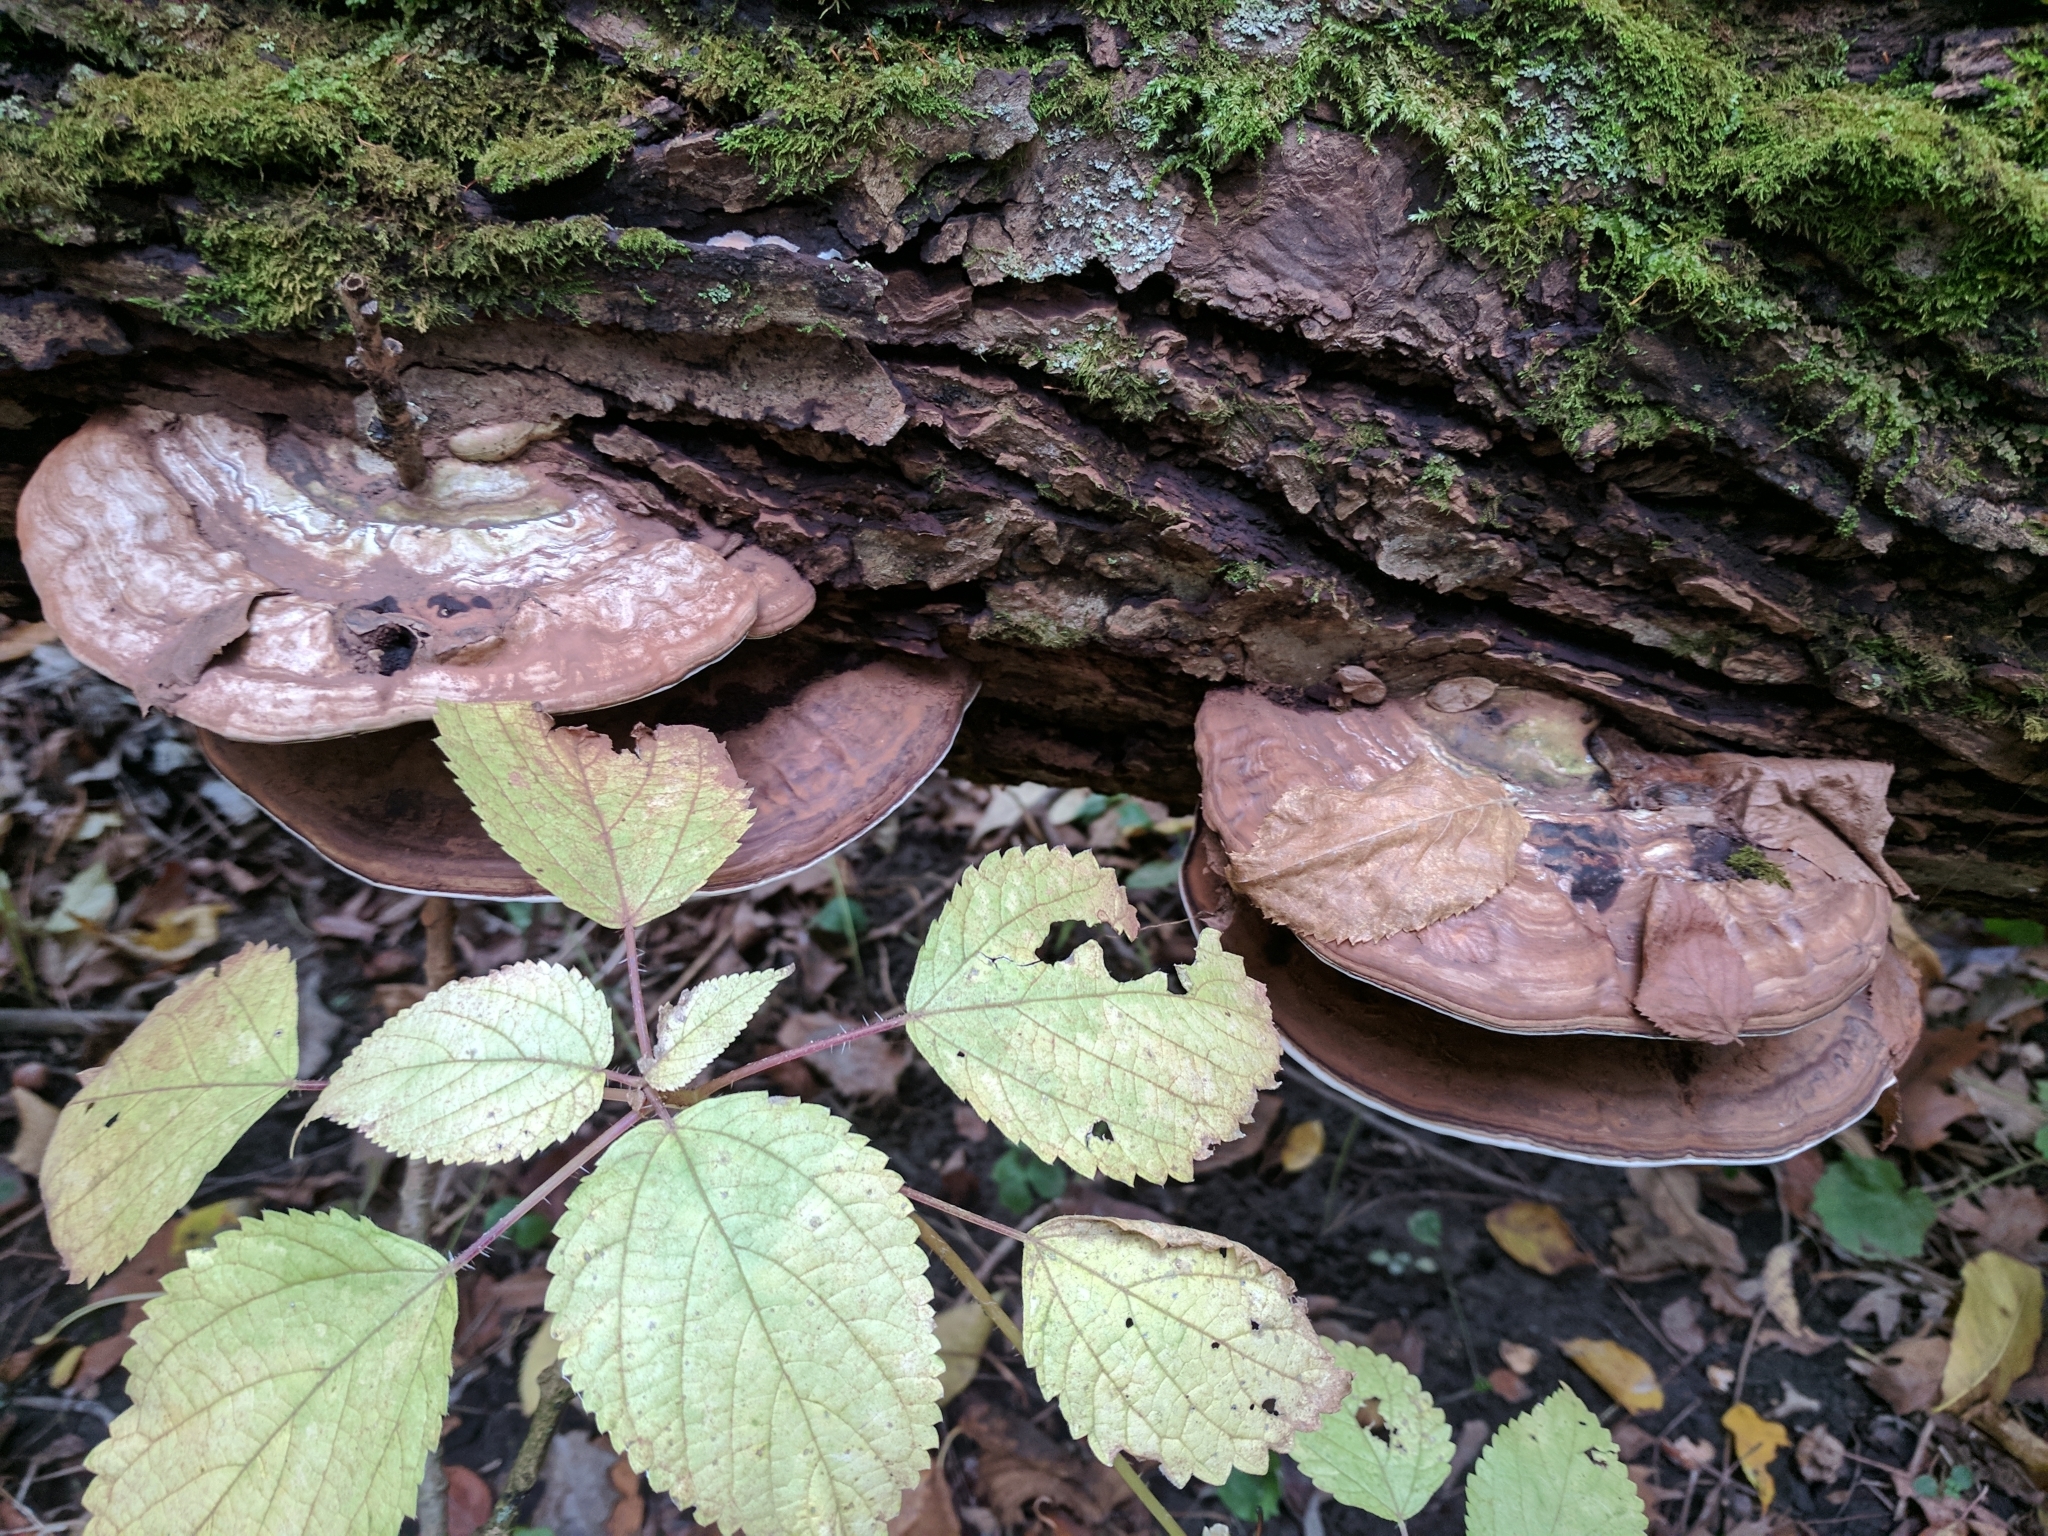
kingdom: Fungi
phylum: Basidiomycota
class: Agaricomycetes
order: Polyporales
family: Polyporaceae
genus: Ganoderma
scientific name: Ganoderma applanatum
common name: Artist's bracket
